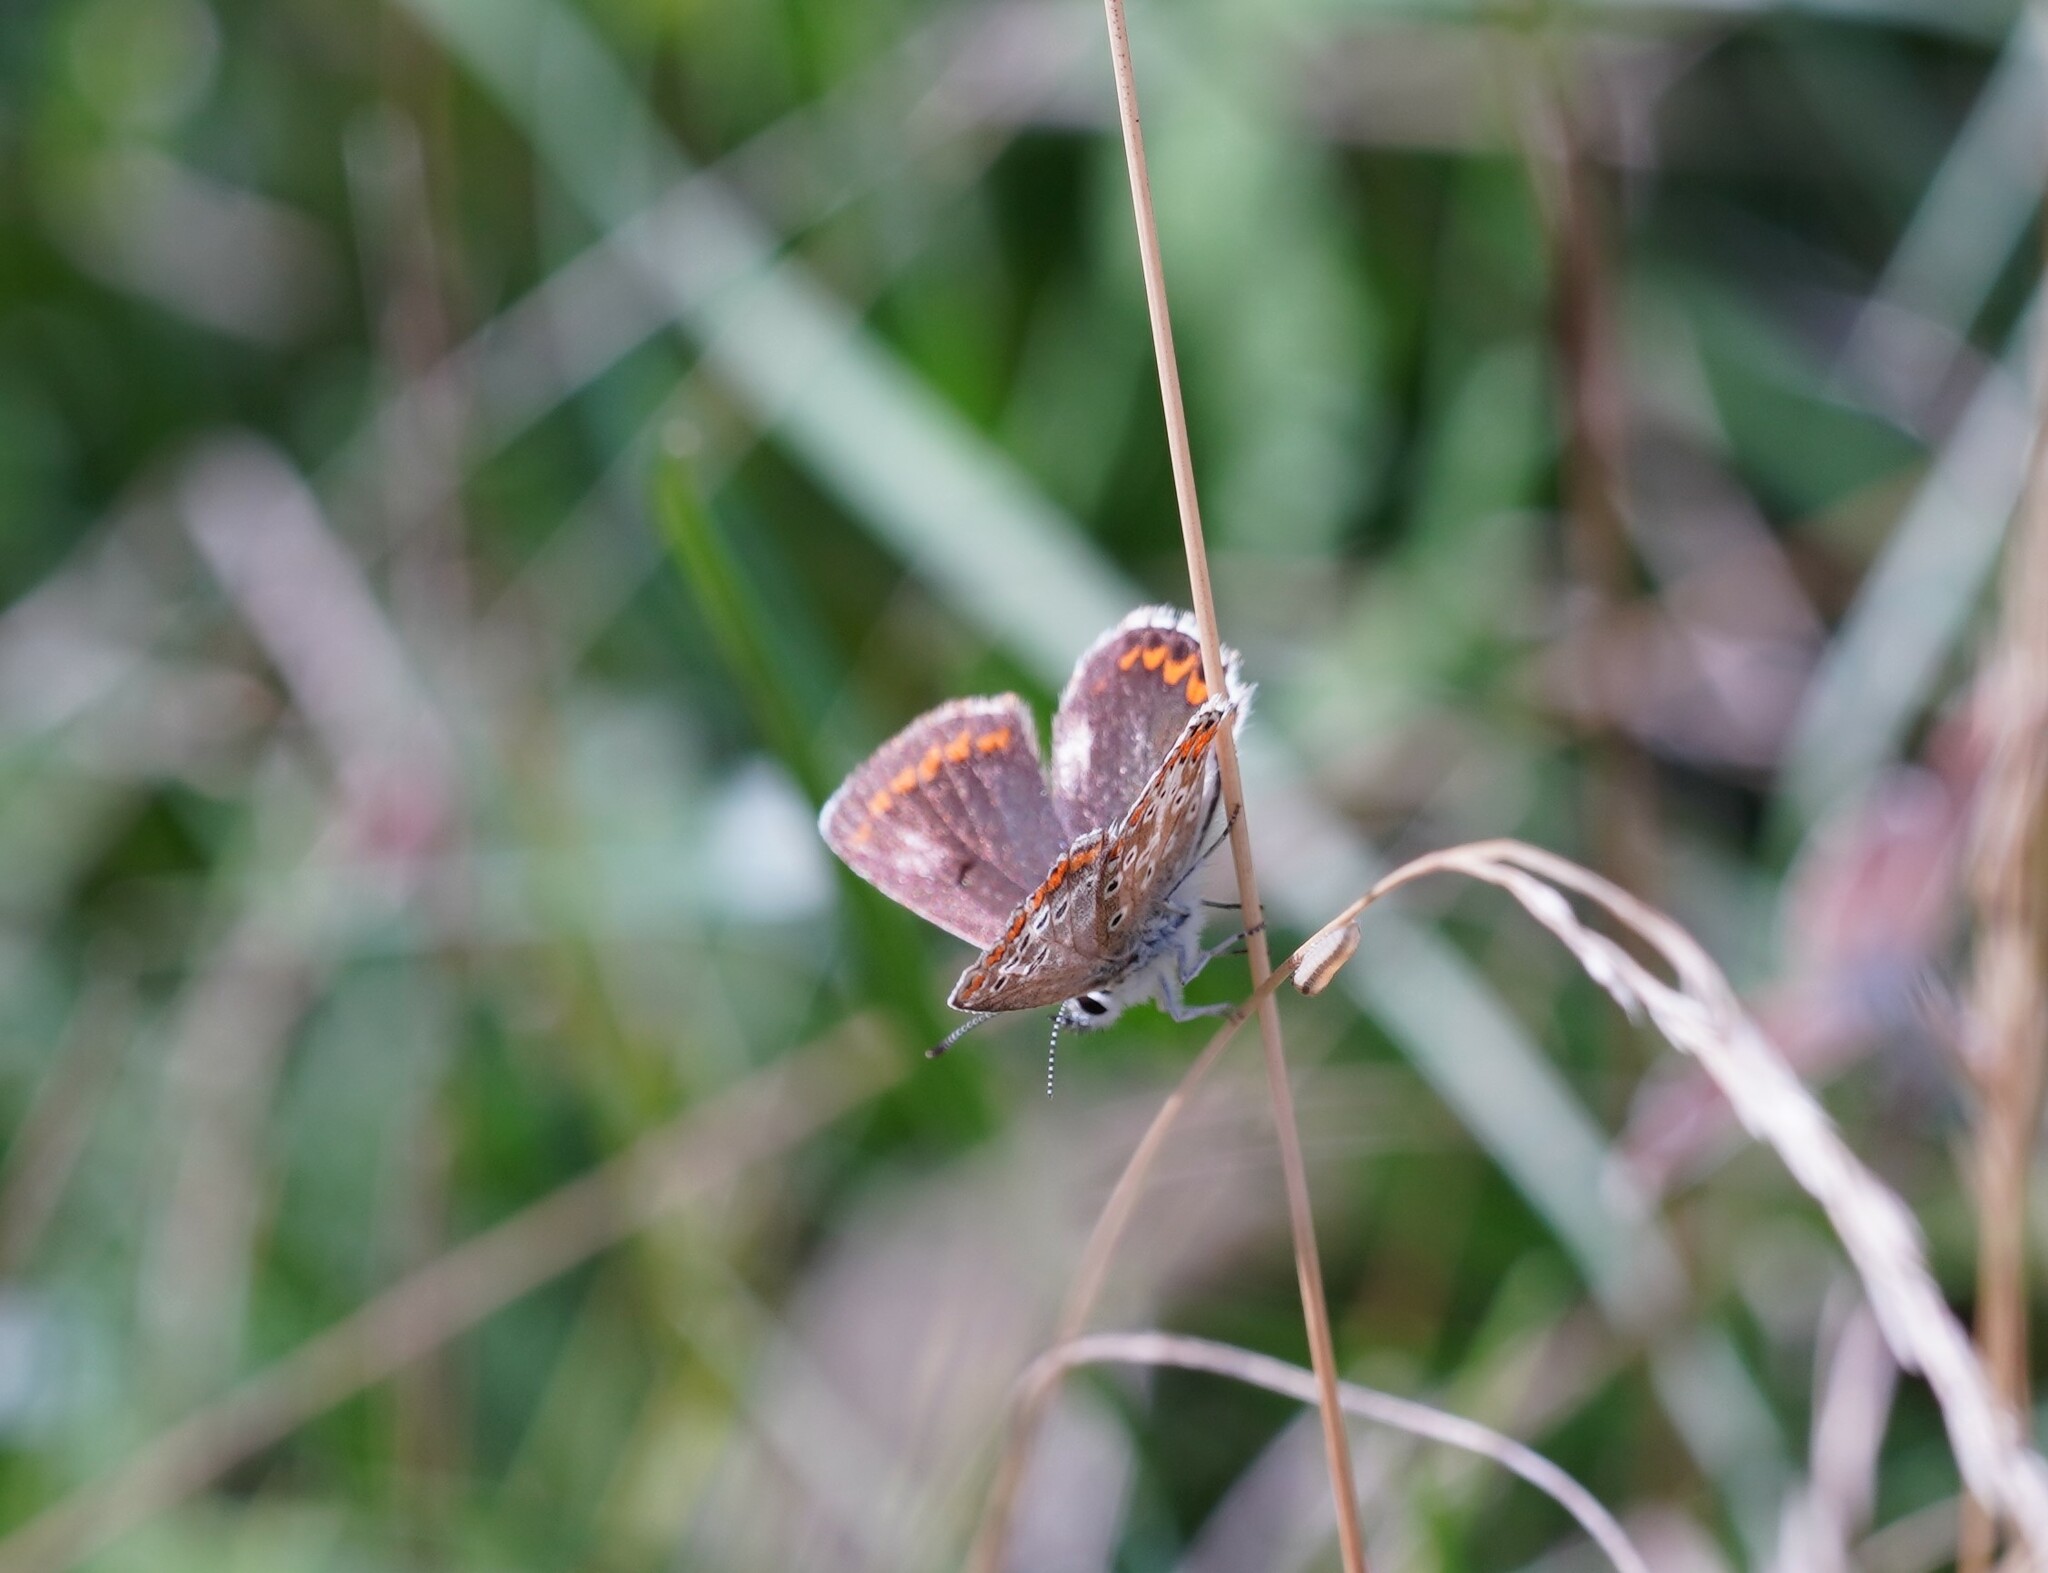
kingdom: Animalia
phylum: Arthropoda
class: Insecta
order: Lepidoptera
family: Lycaenidae
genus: Aricia
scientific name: Aricia agestis
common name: Brown argus
